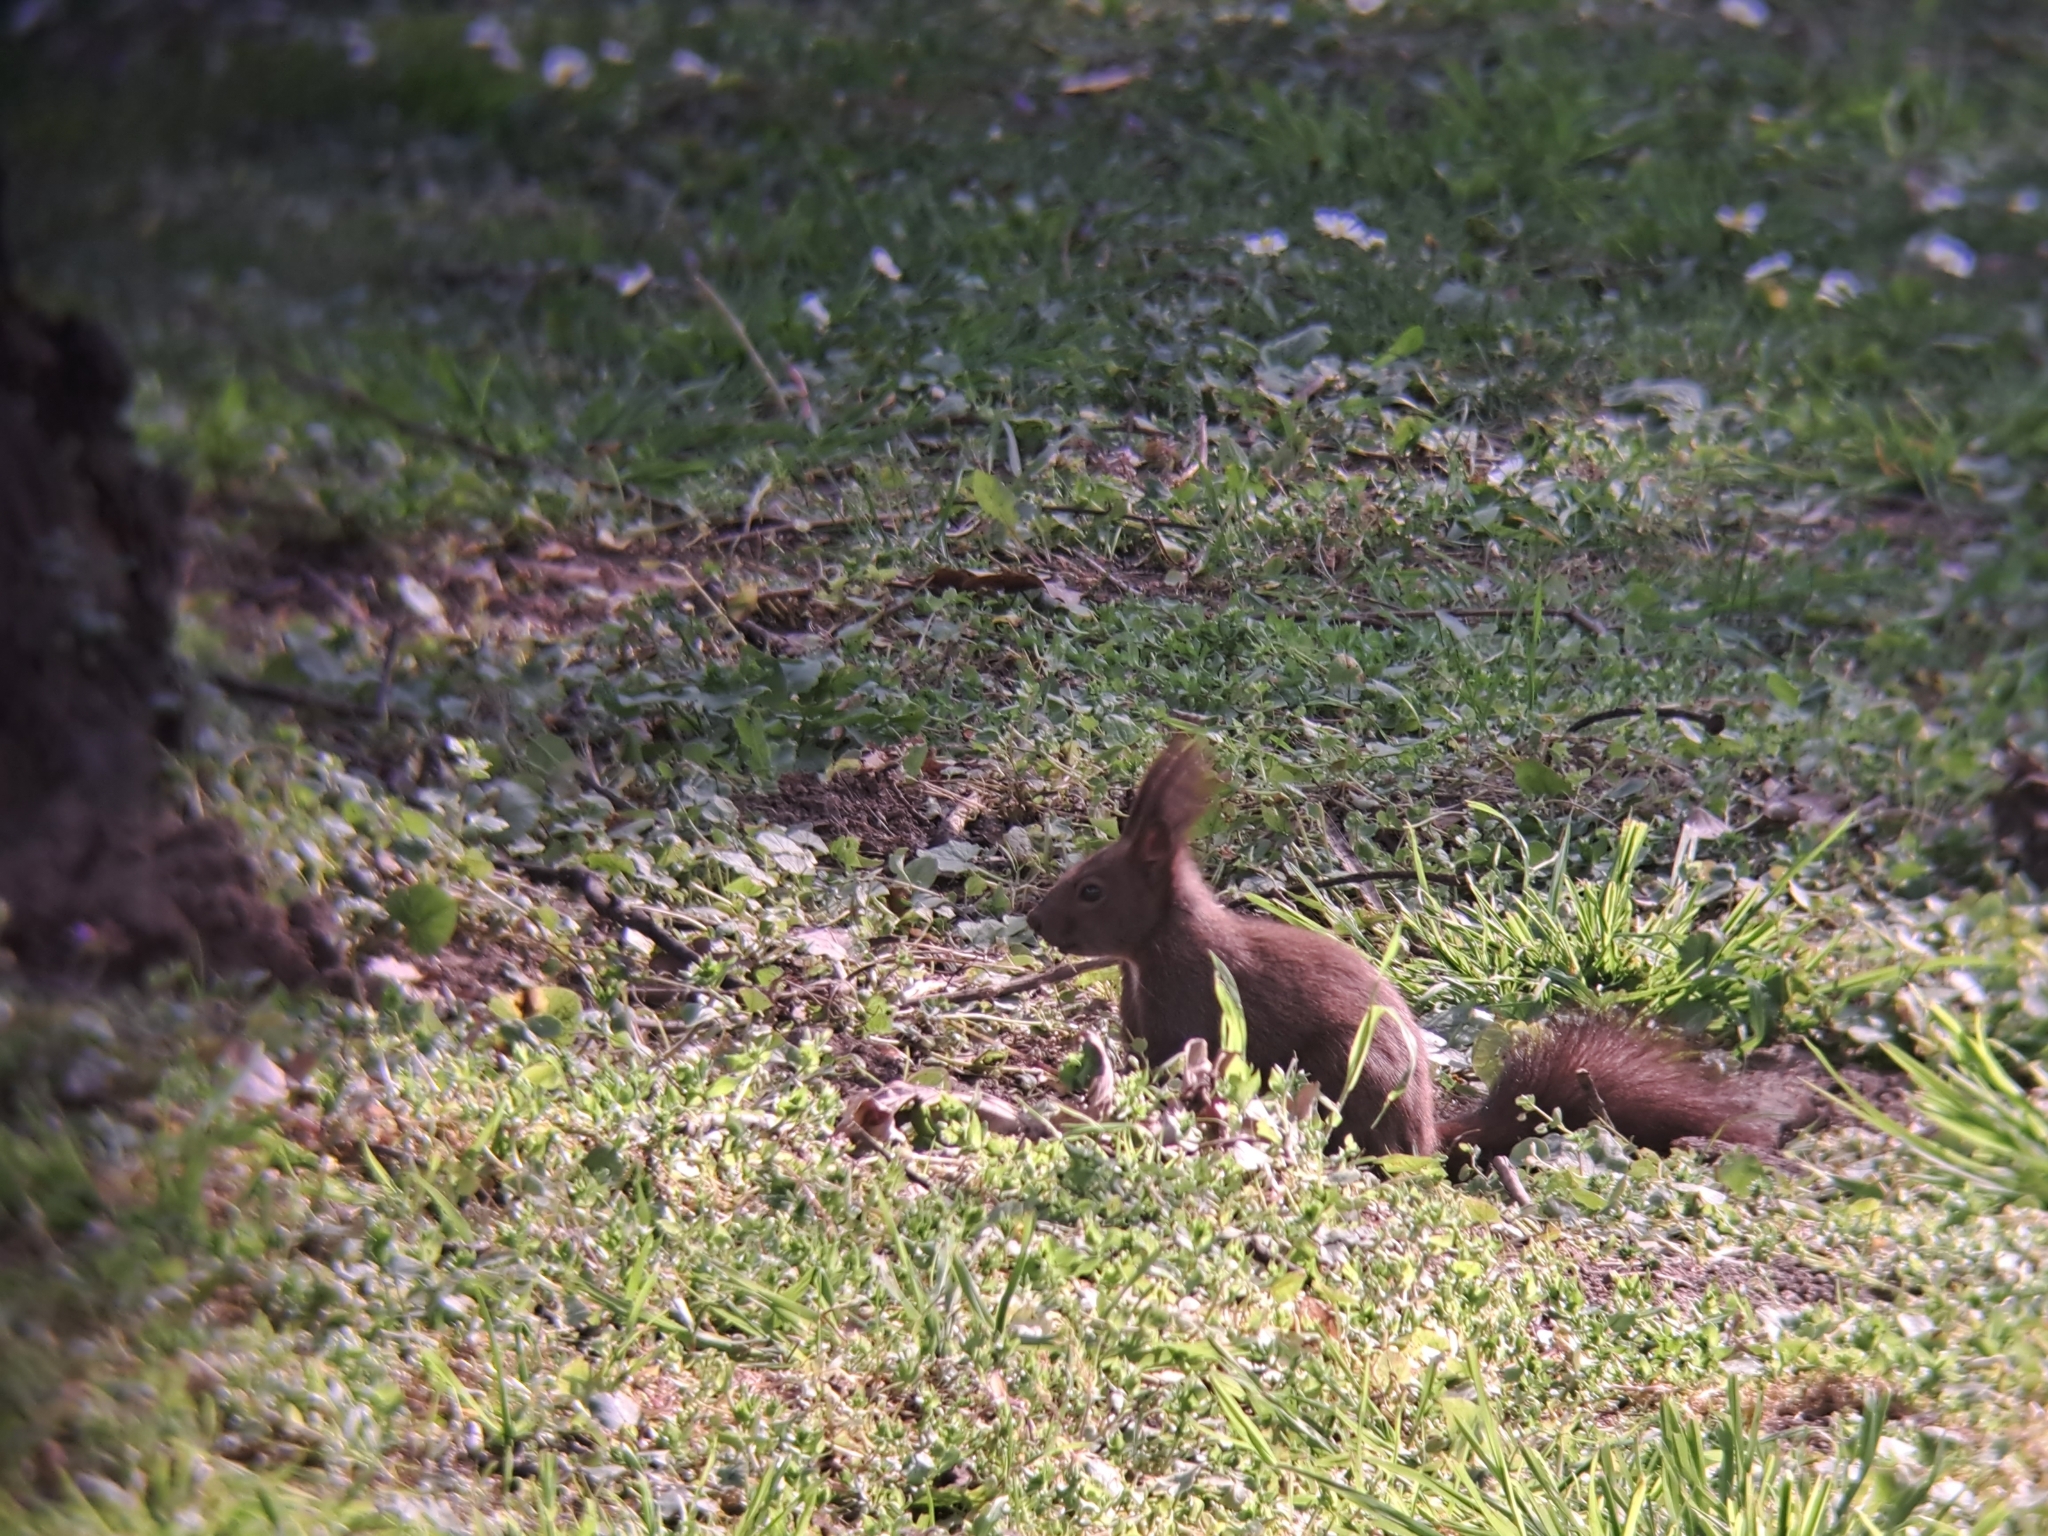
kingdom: Animalia
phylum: Chordata
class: Mammalia
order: Rodentia
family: Sciuridae
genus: Sciurus
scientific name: Sciurus vulgaris
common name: Eurasian red squirrel
